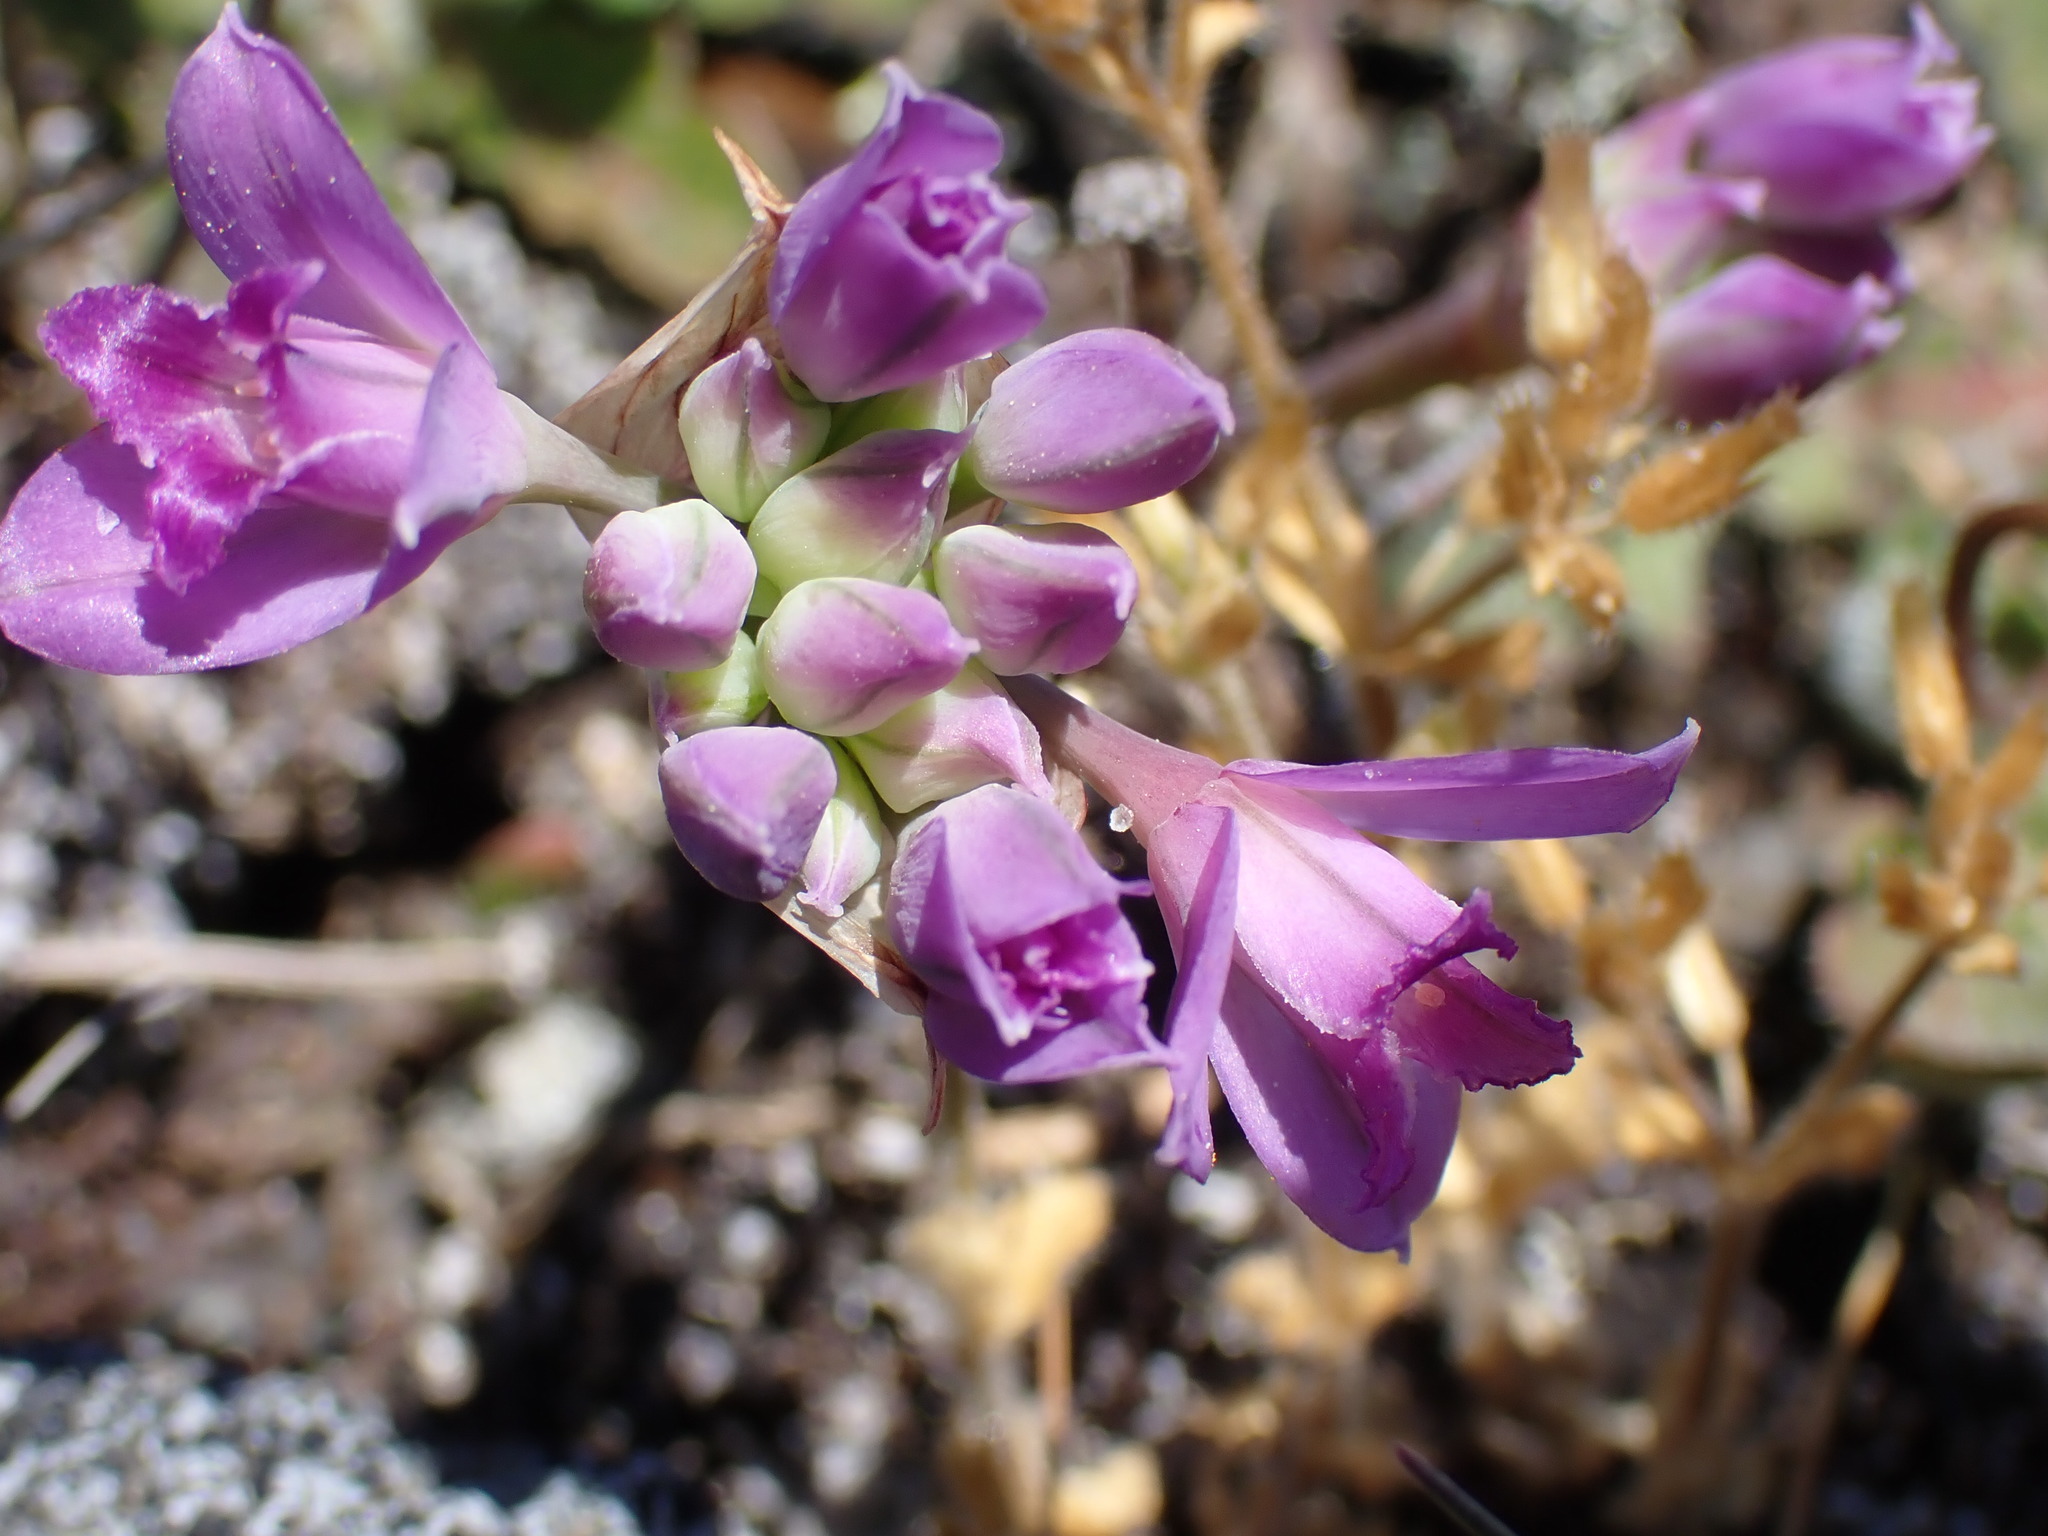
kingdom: Plantae
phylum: Tracheophyta
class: Liliopsida
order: Asparagales
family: Amaryllidaceae
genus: Allium
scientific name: Allium acuminatum
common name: Hooker's onion
